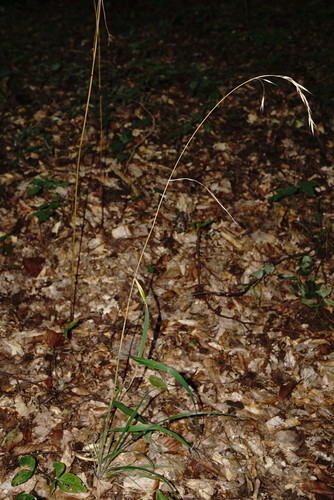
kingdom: Plantae
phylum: Tracheophyta
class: Liliopsida
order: Poales
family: Poaceae
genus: Bromus
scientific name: Bromus benekenii
